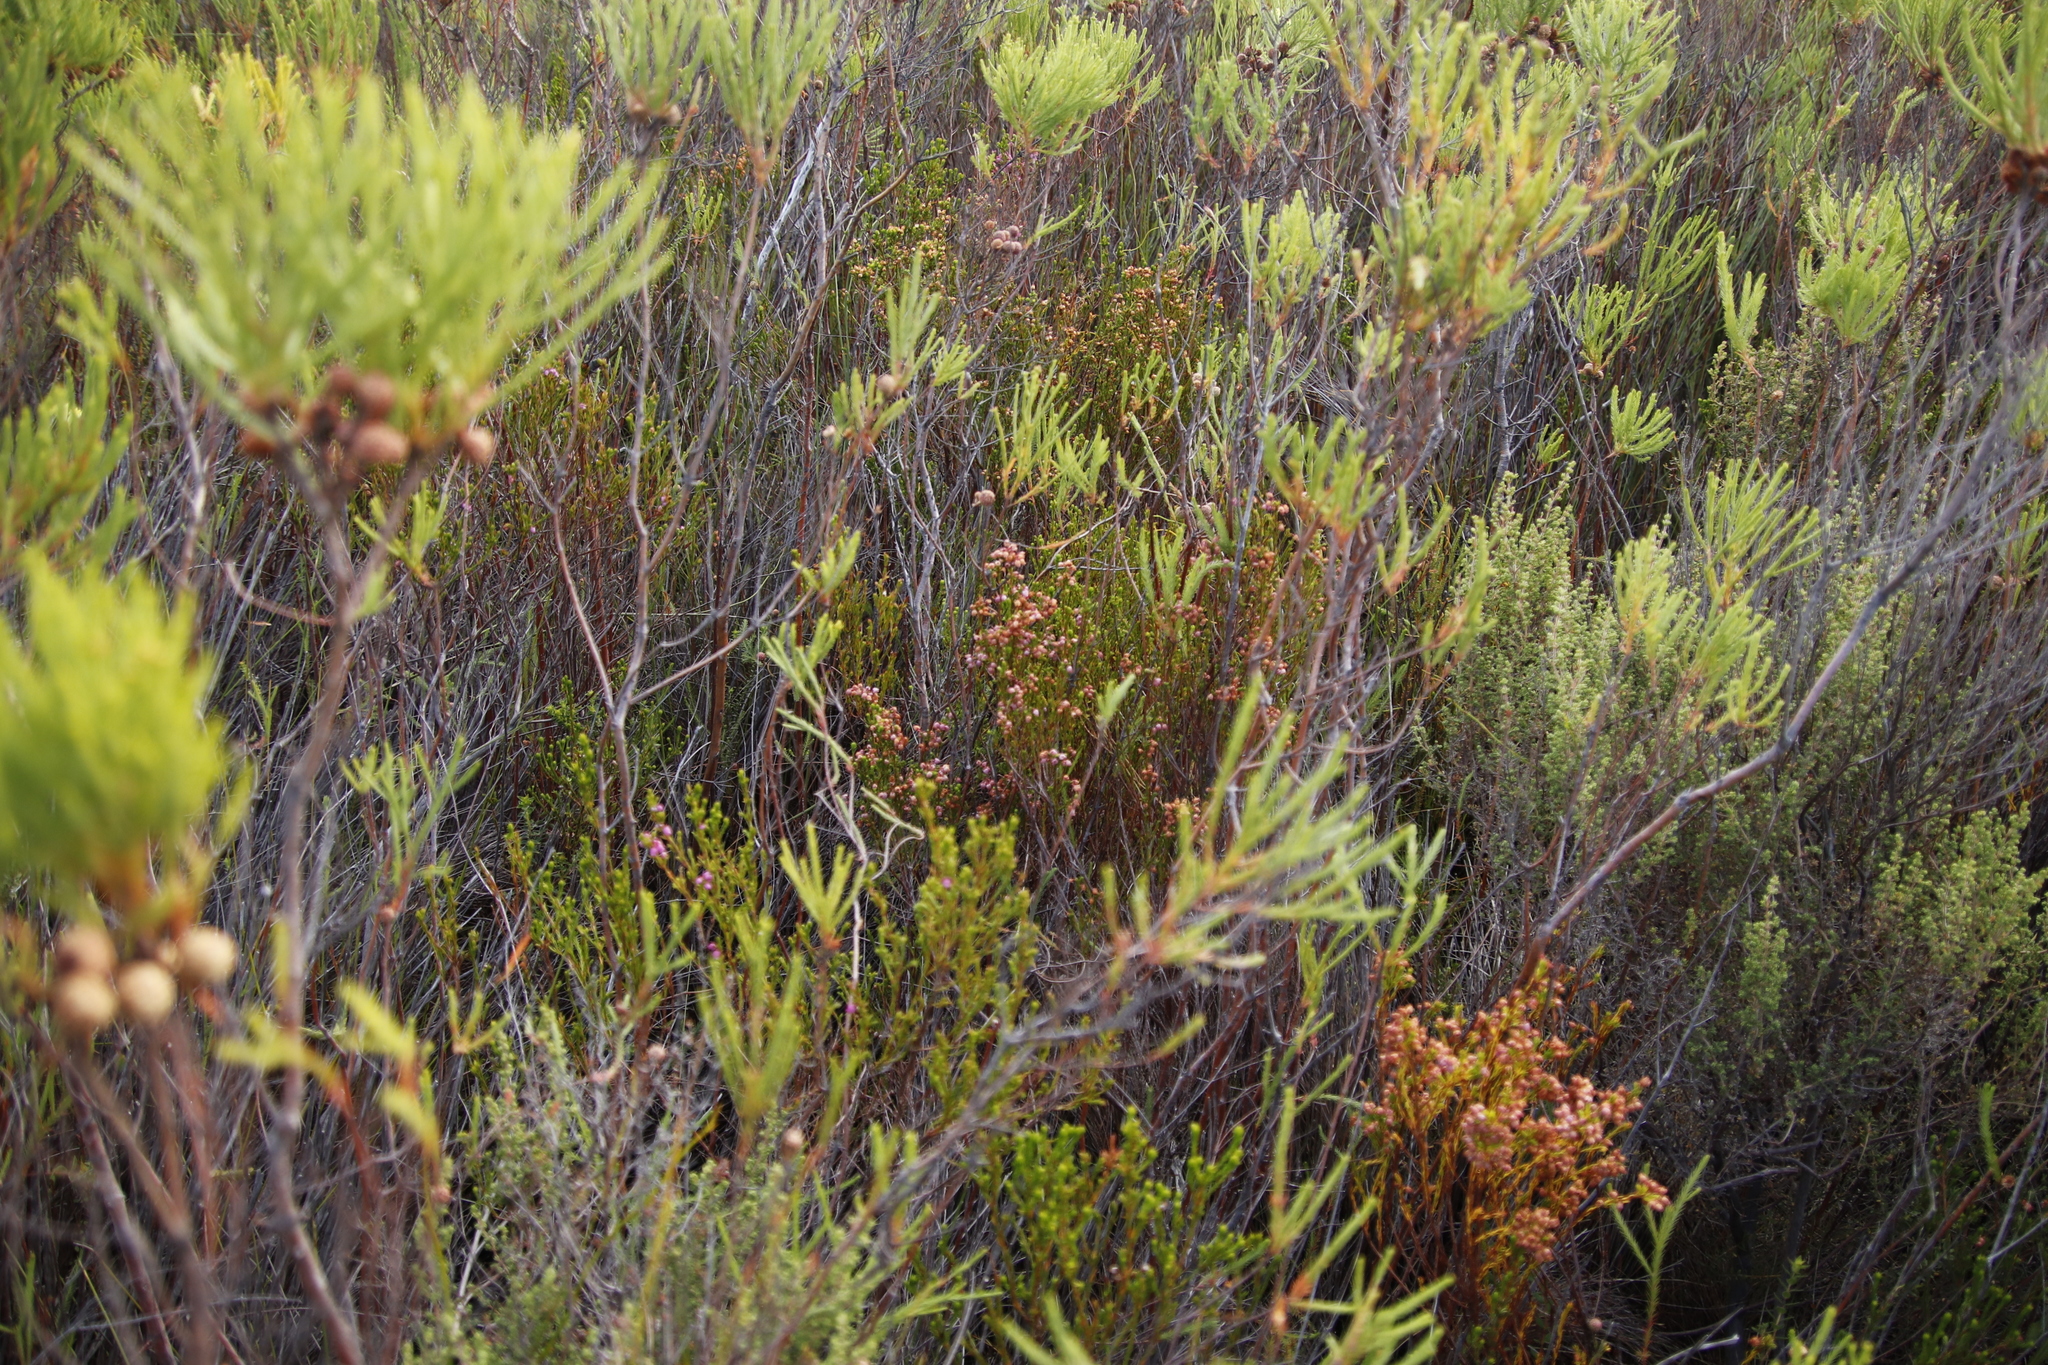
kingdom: Plantae
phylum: Tracheophyta
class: Magnoliopsida
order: Ericales
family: Ericaceae
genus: Erica
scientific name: Erica laeta
